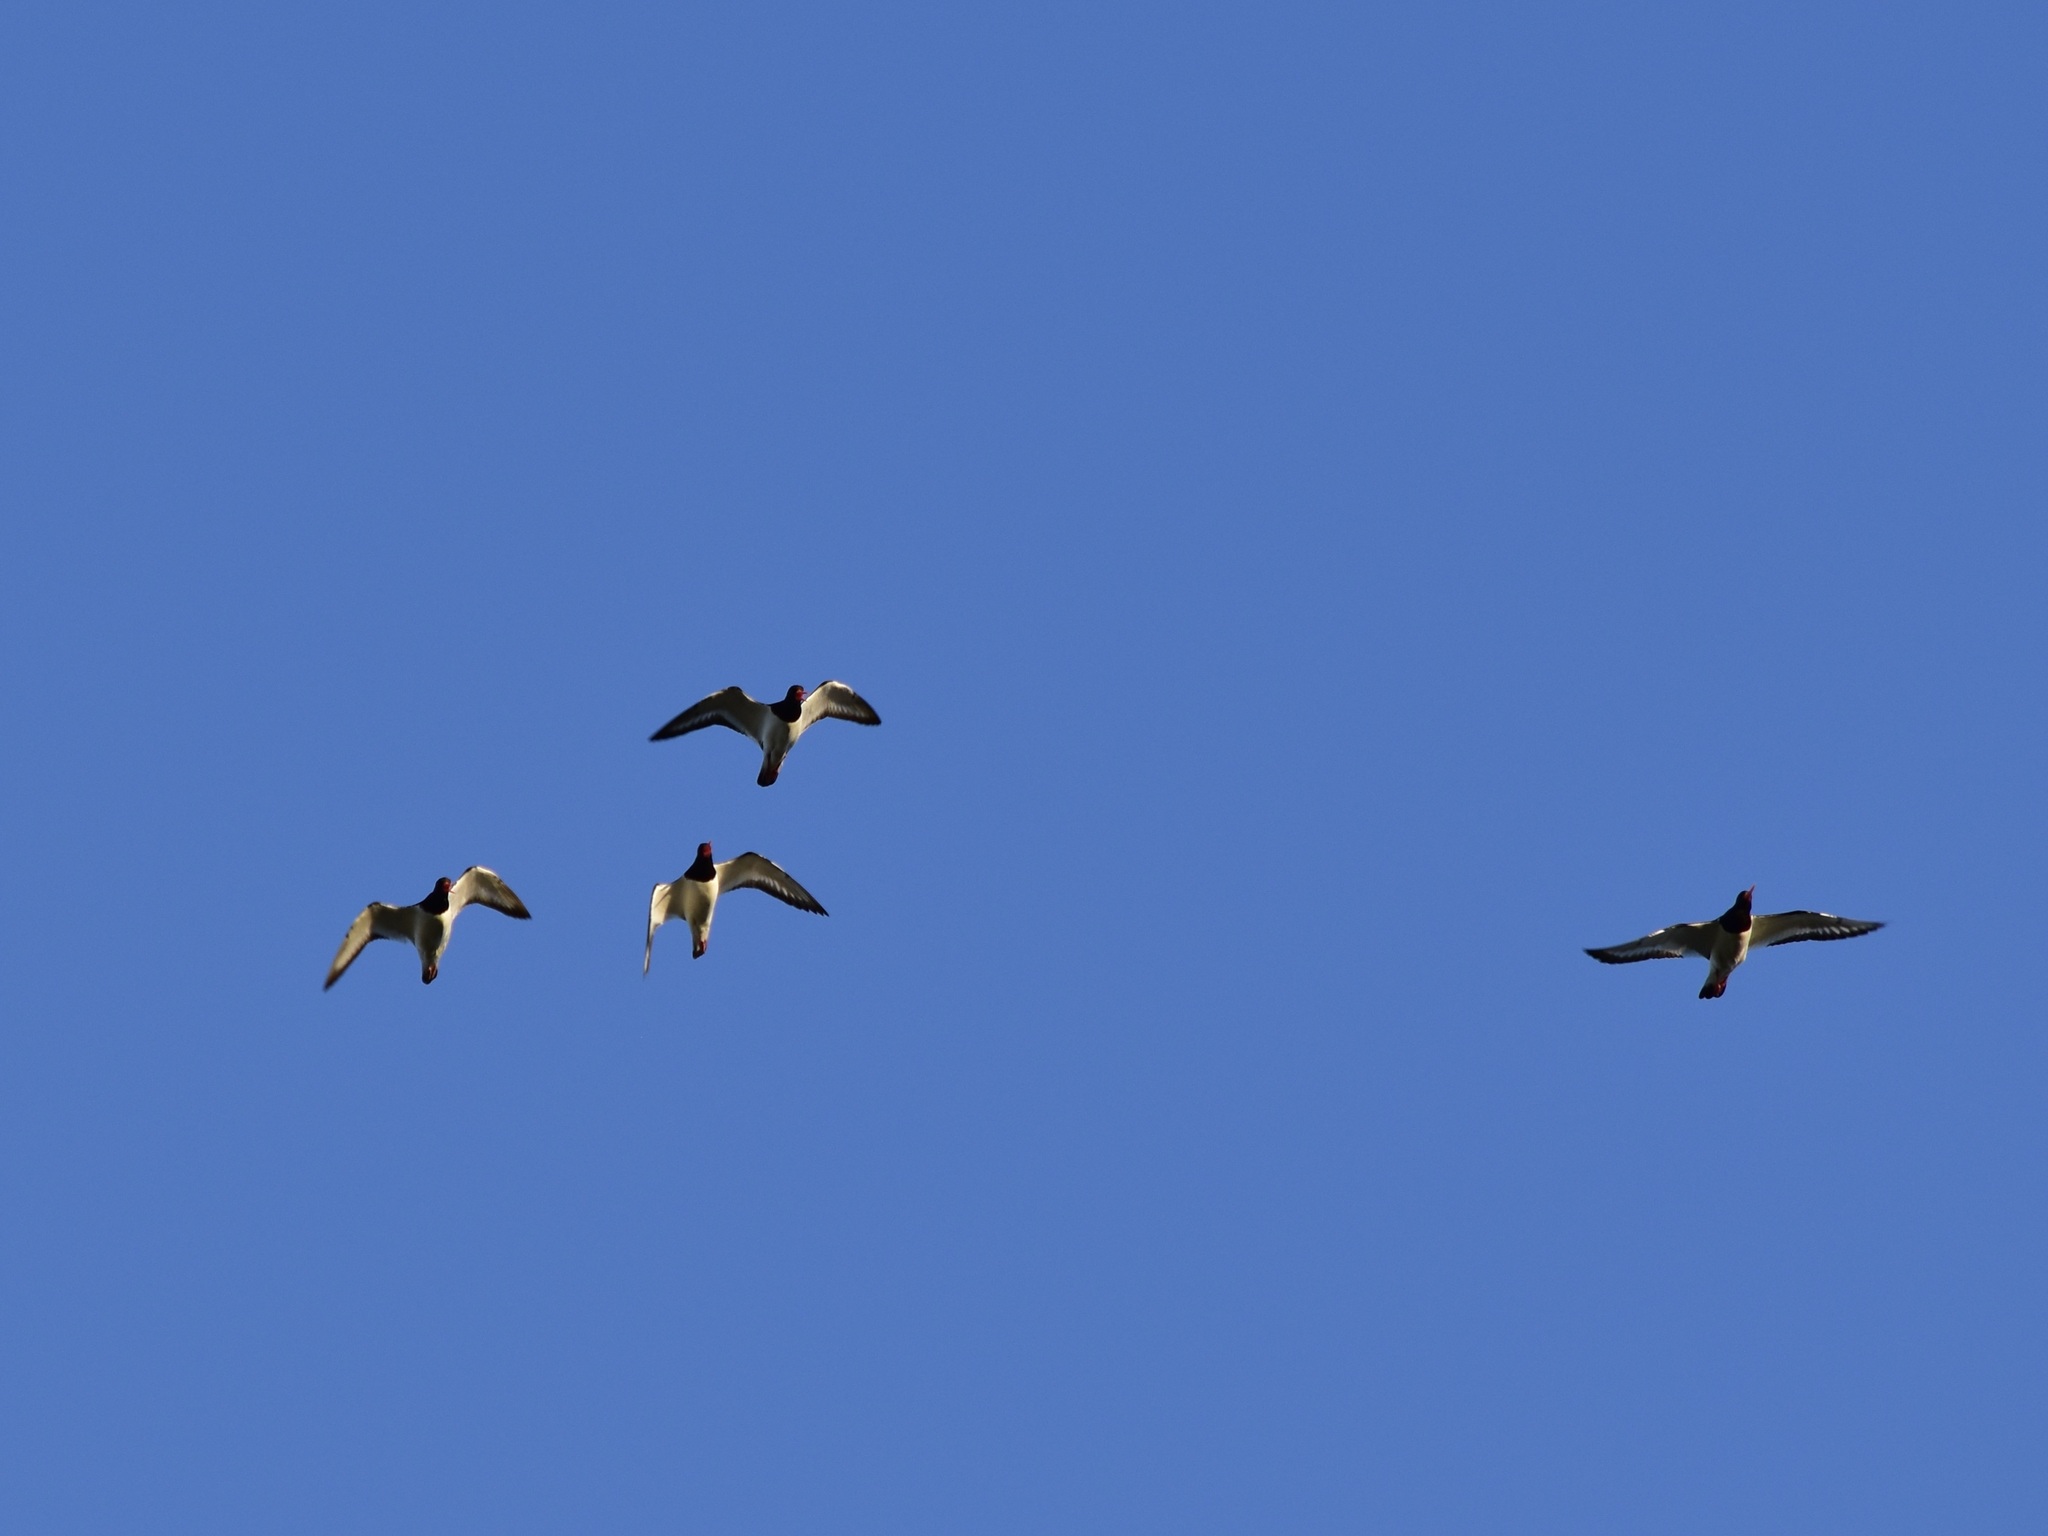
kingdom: Animalia
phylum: Chordata
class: Aves
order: Charadriiformes
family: Haematopodidae
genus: Haematopus
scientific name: Haematopus ostralegus
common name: Eurasian oystercatcher
